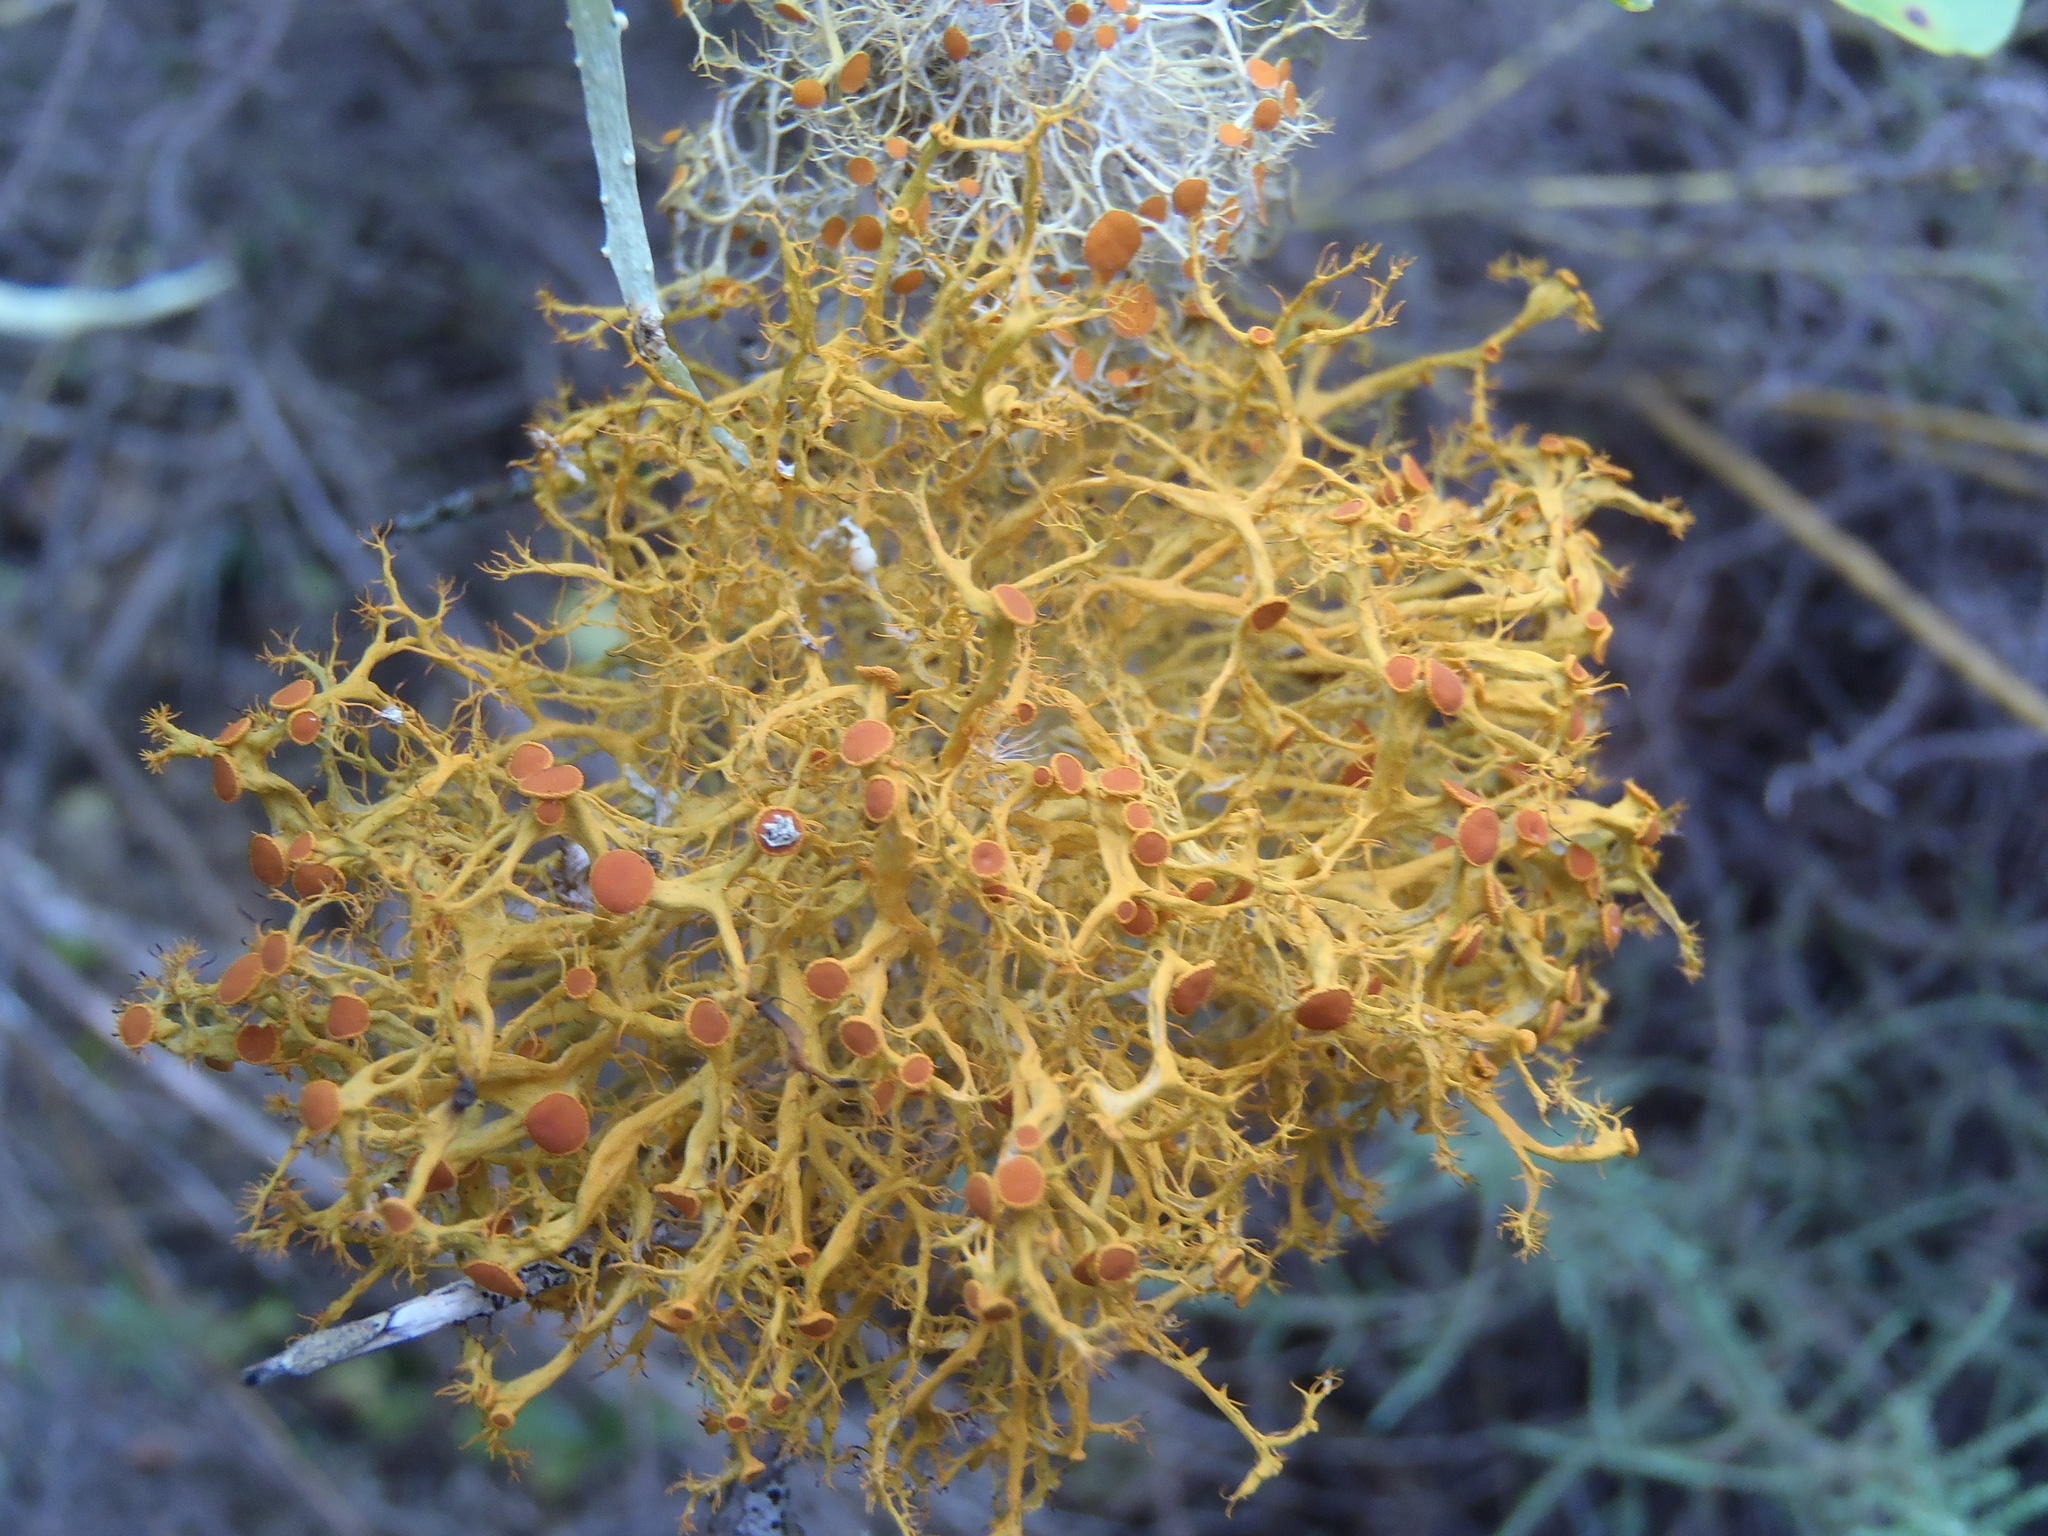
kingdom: Fungi
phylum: Ascomycota
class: Lecanoromycetes
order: Teloschistales
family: Teloschistaceae
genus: Teloschistes
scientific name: Teloschistes inflatus
